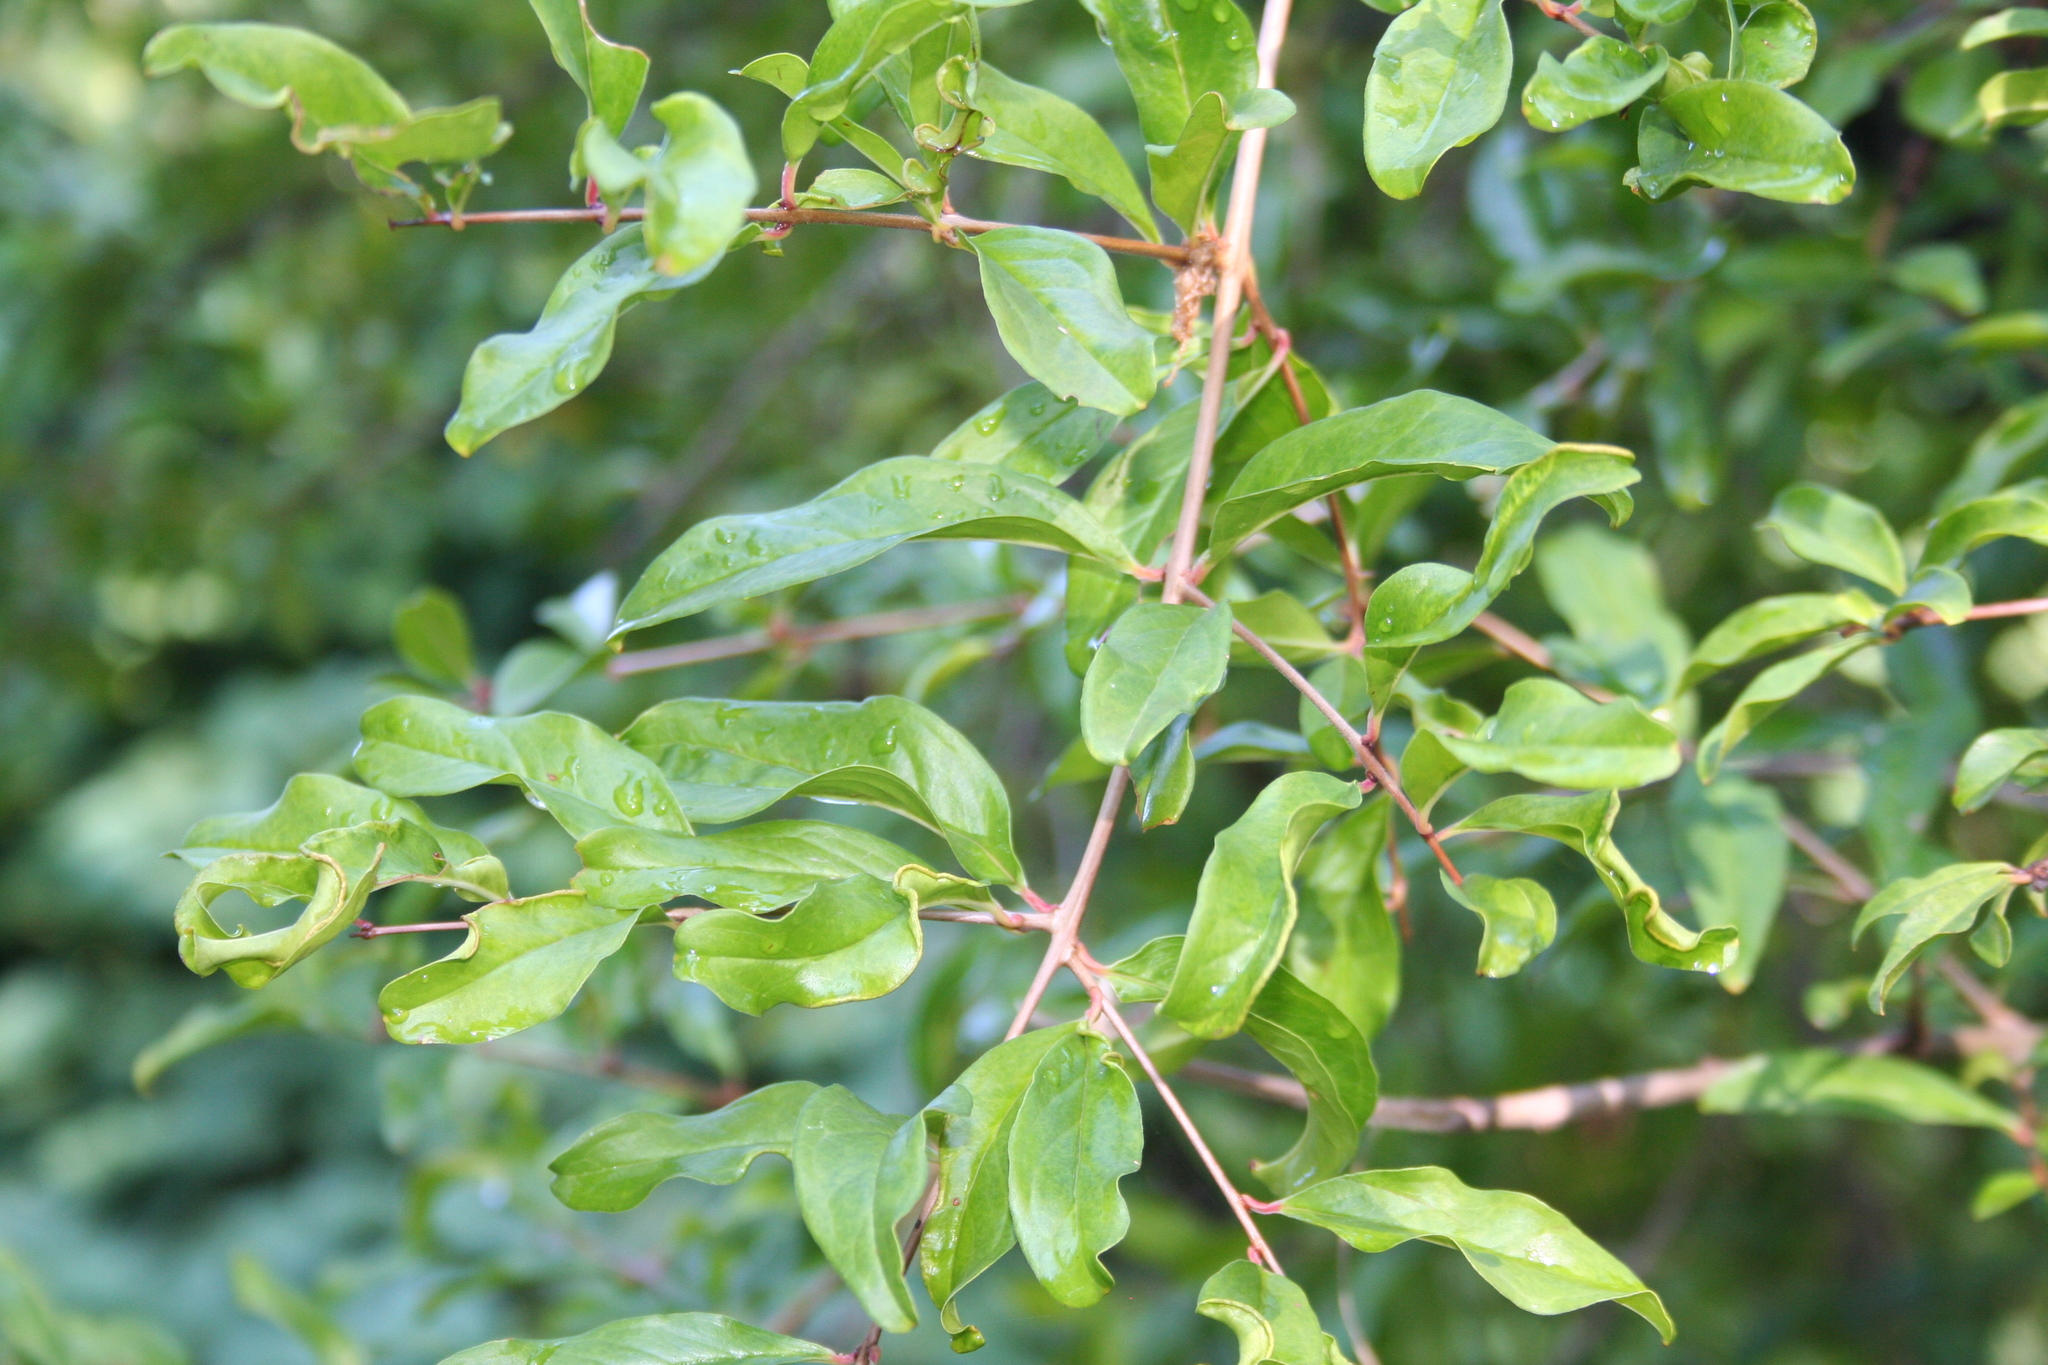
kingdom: Plantae
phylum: Tracheophyta
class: Magnoliopsida
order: Myrtales
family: Lythraceae
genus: Punica
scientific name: Punica granatum
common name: Pomegranate
